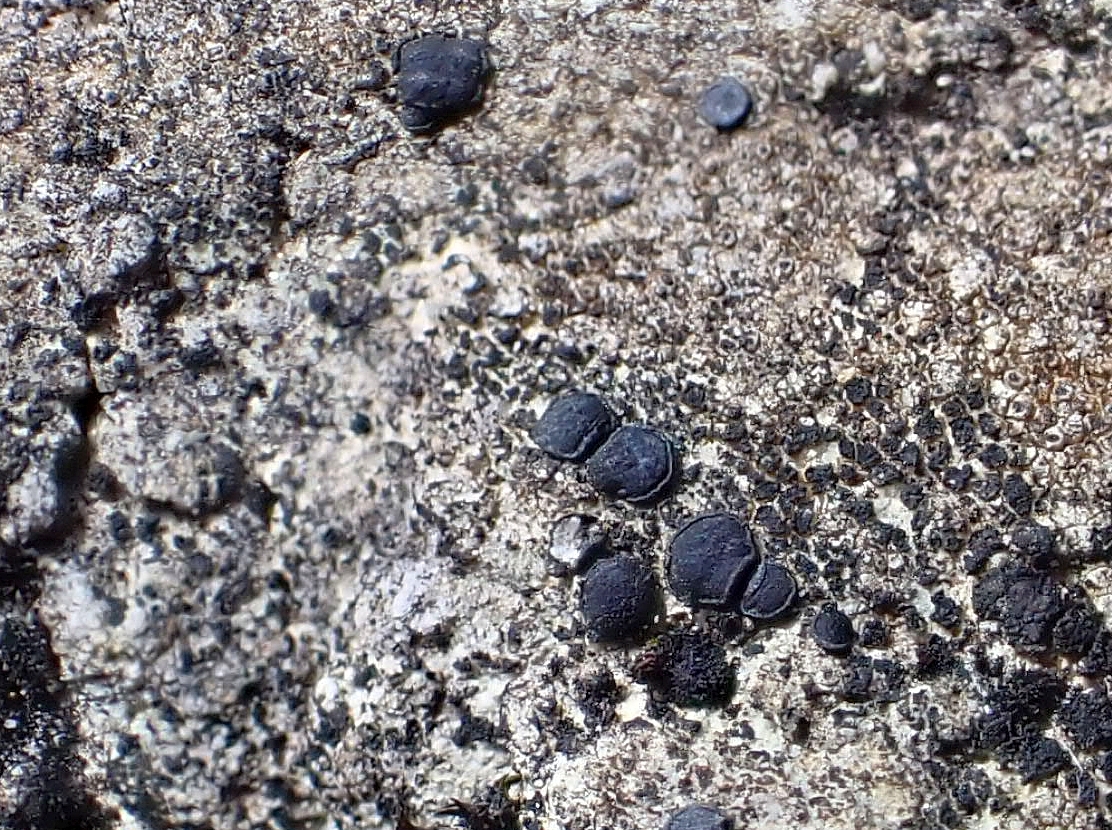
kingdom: Fungi
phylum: Ascomycota
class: Lecanoromycetes
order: Acarosporales
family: Acarosporaceae
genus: Sarcogyne
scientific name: Sarcogyne regularis
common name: Frosted grain-spored lichen
